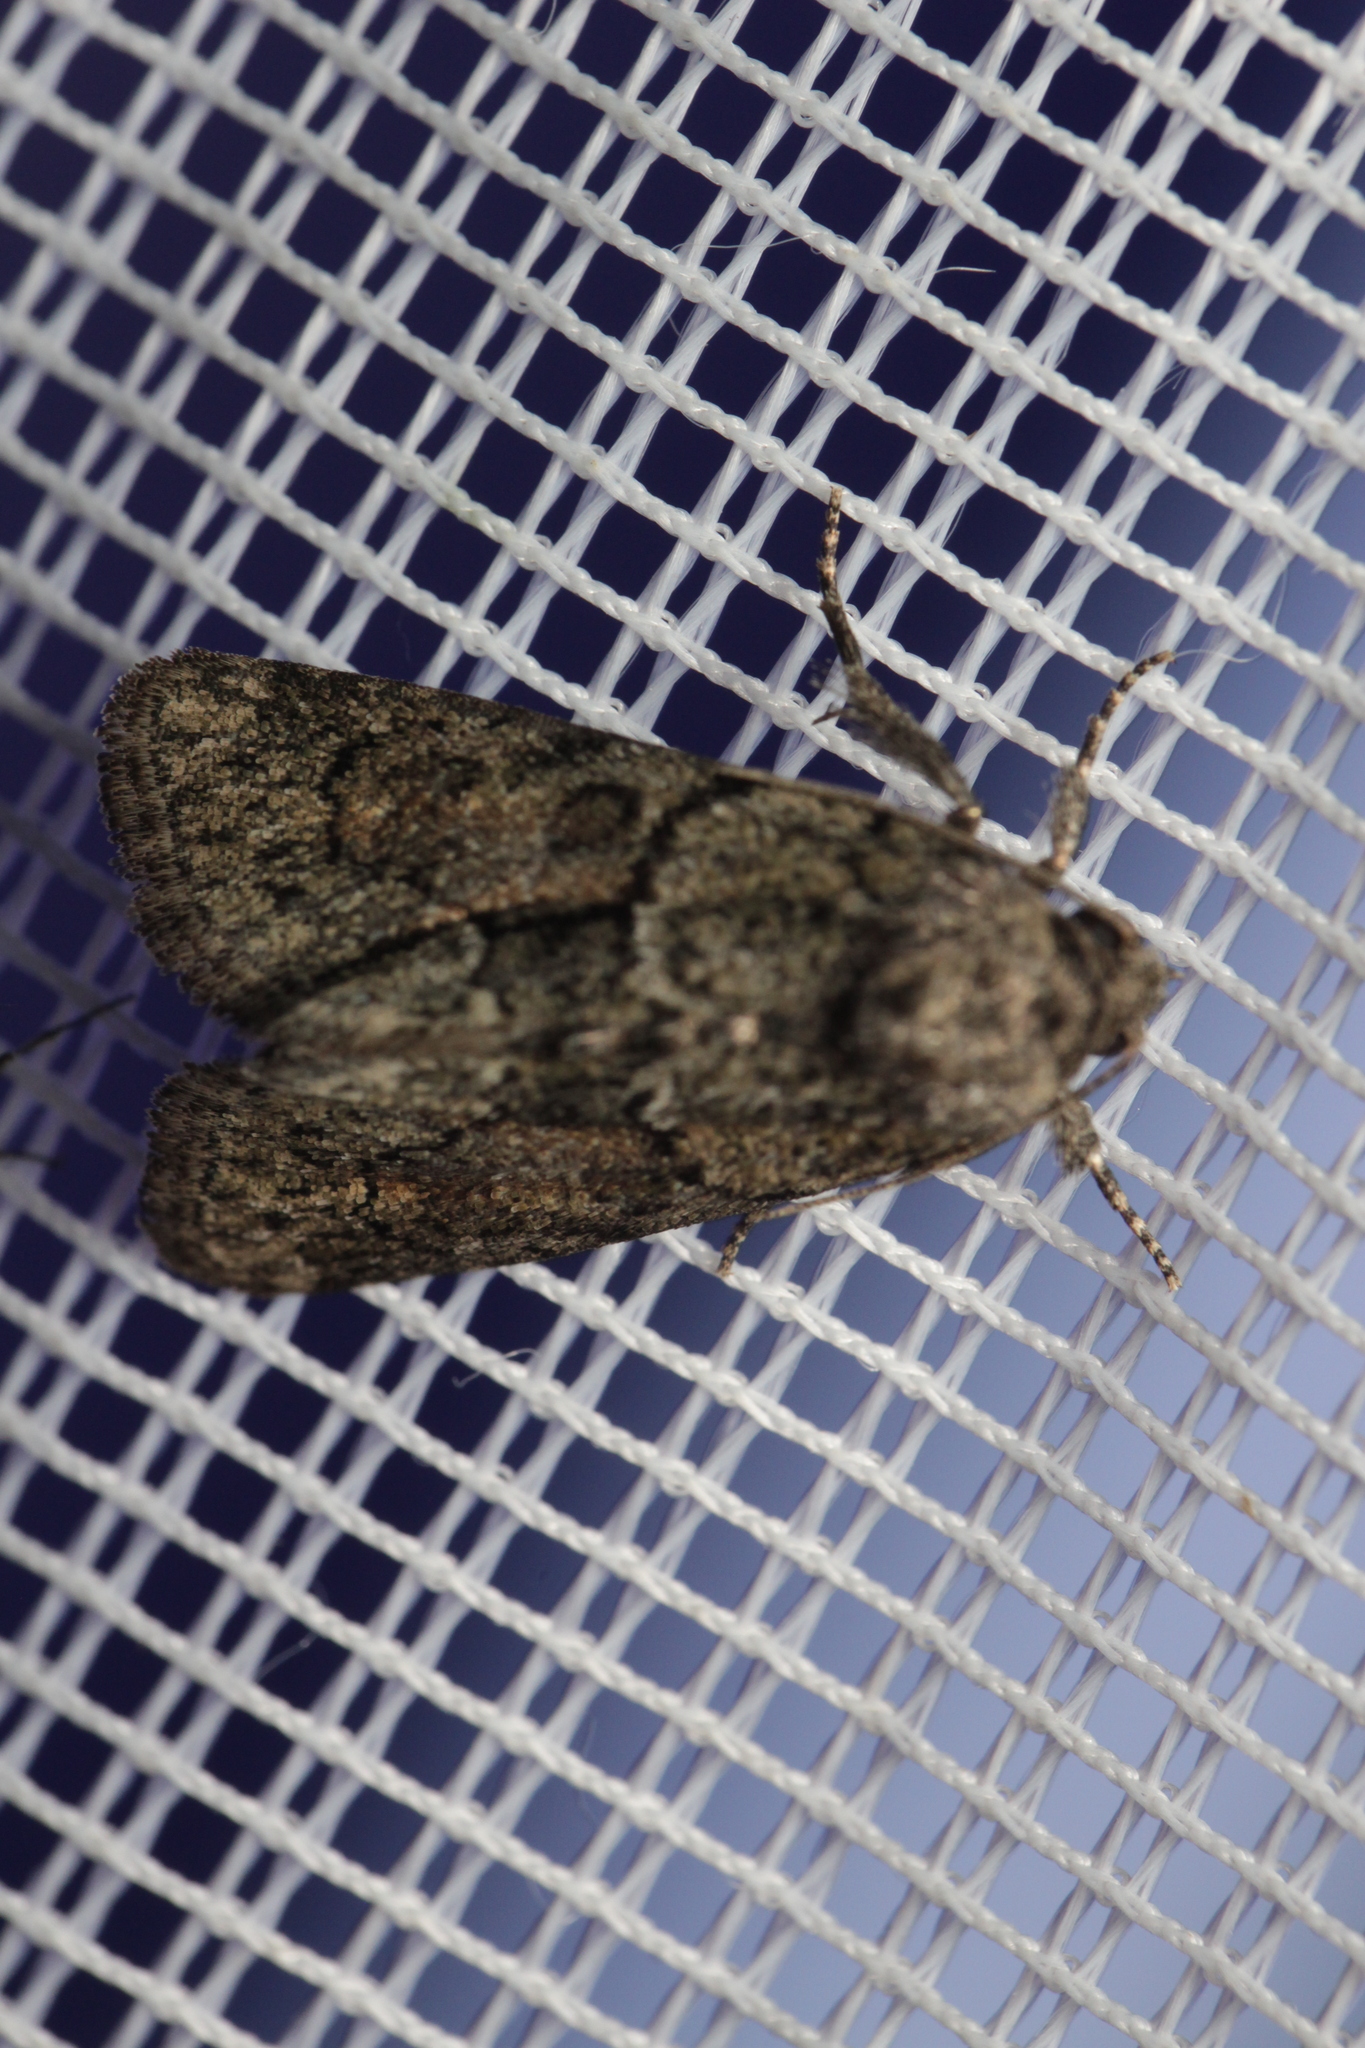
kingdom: Animalia
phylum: Arthropoda
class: Insecta
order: Lepidoptera
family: Noctuidae
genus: Cryphia
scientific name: Cryphia fraudatricula
